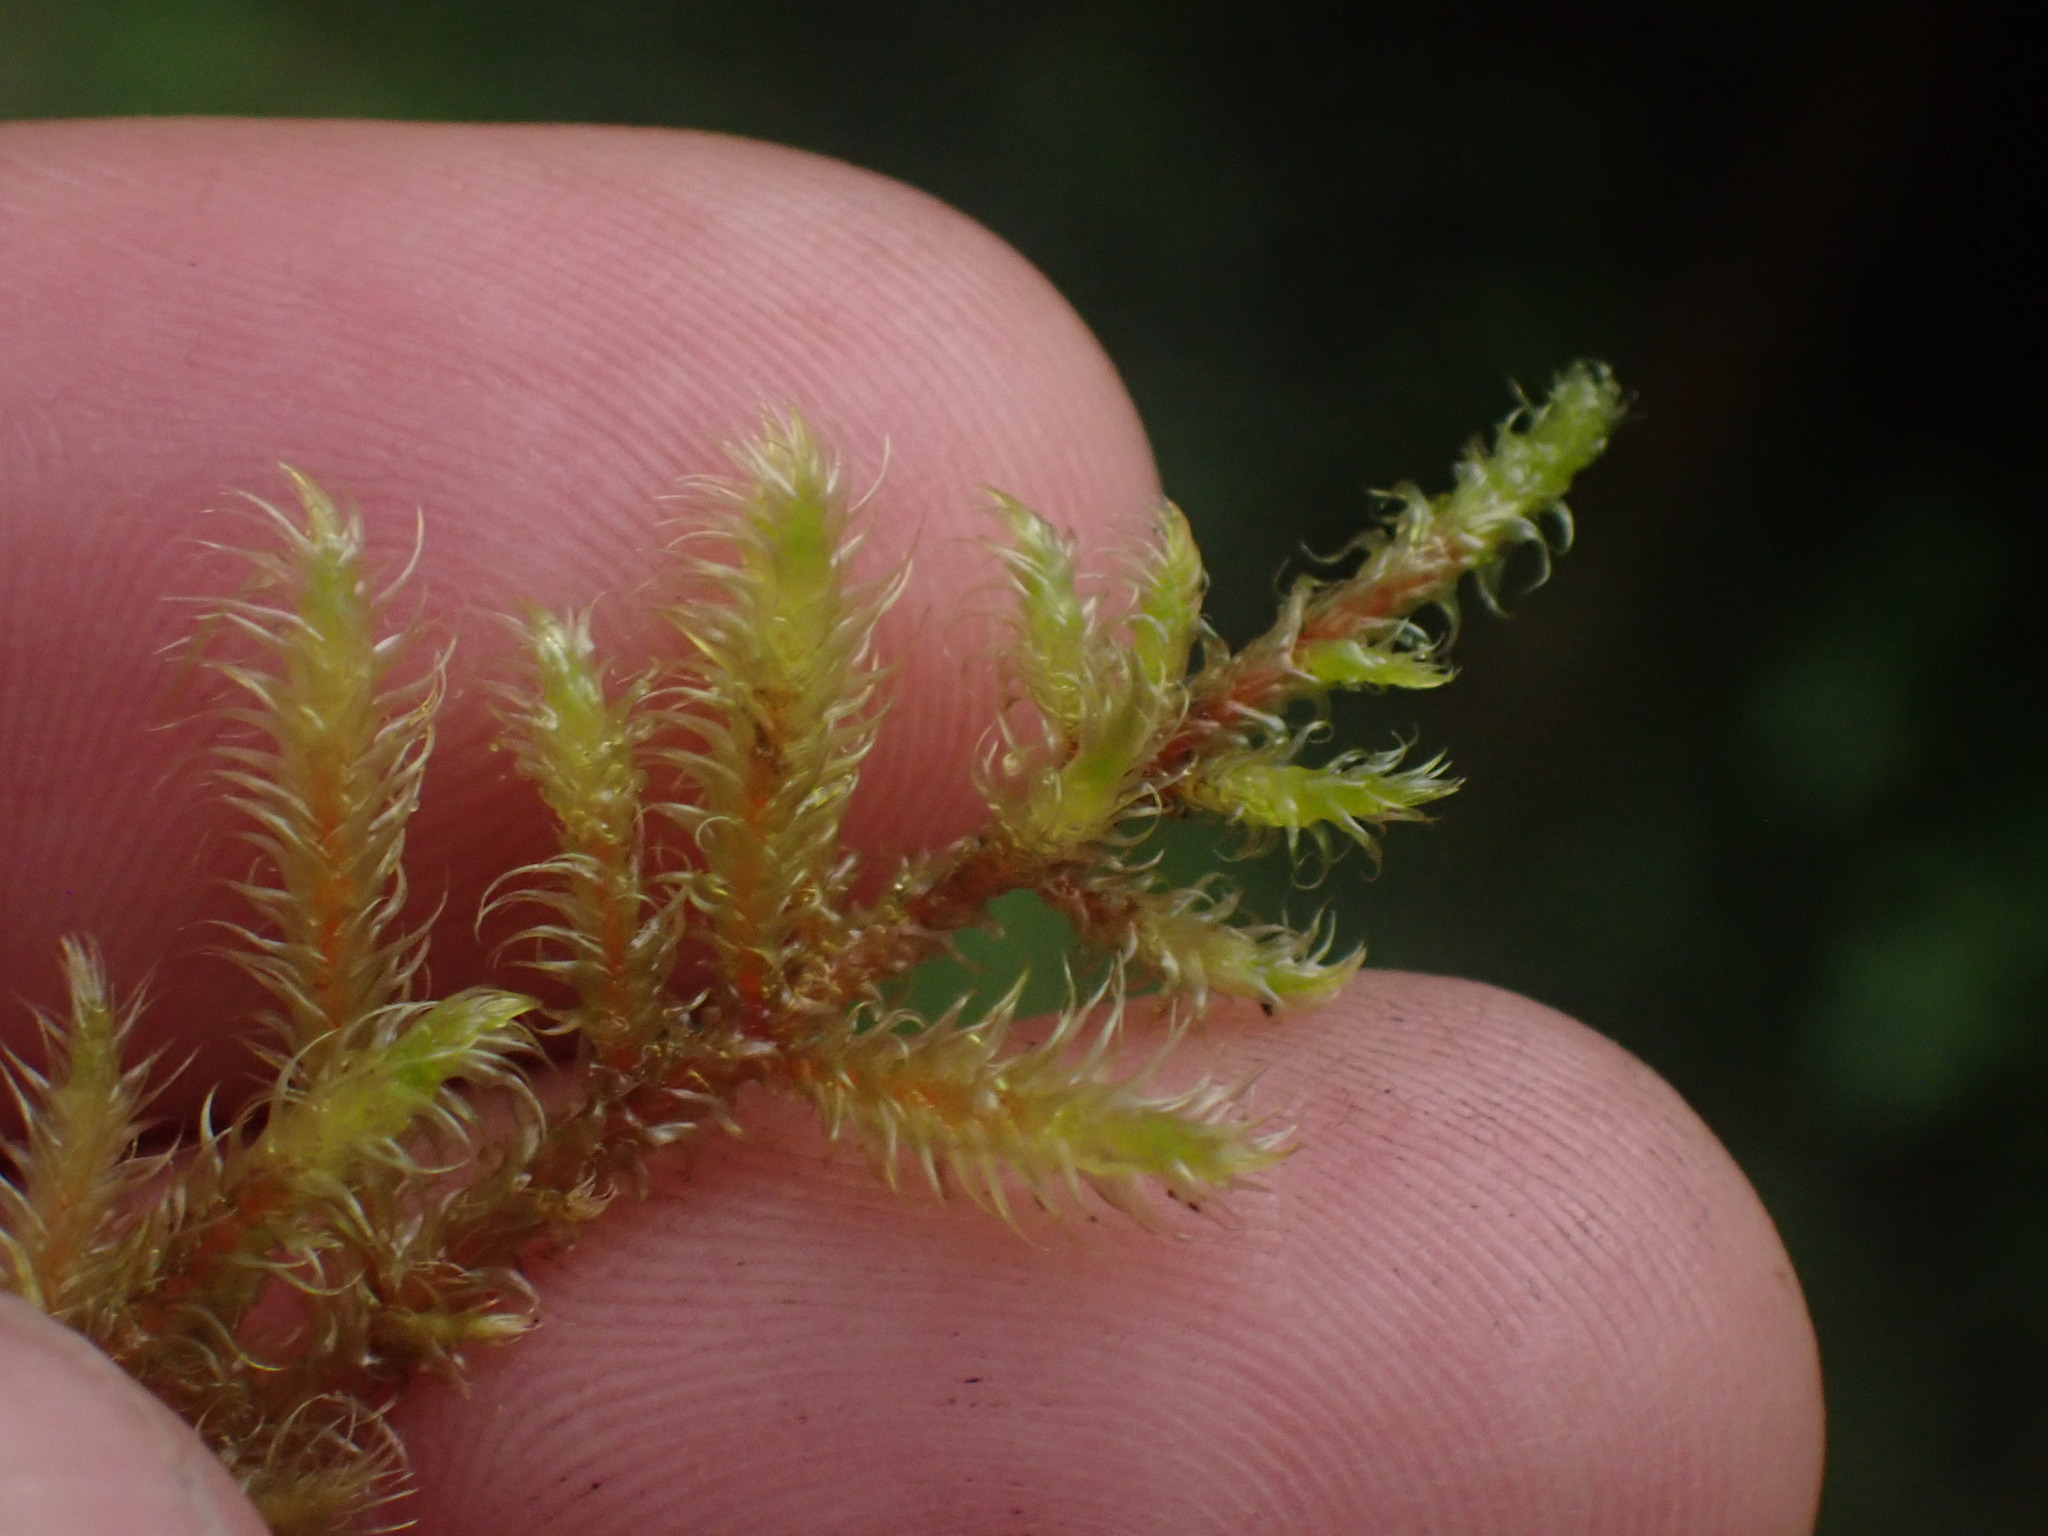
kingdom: Plantae
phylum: Bryophyta
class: Bryopsida
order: Hypnales
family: Hylocomiaceae
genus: Rhytidiadelphus
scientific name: Rhytidiadelphus loreus
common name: Lanky moss
